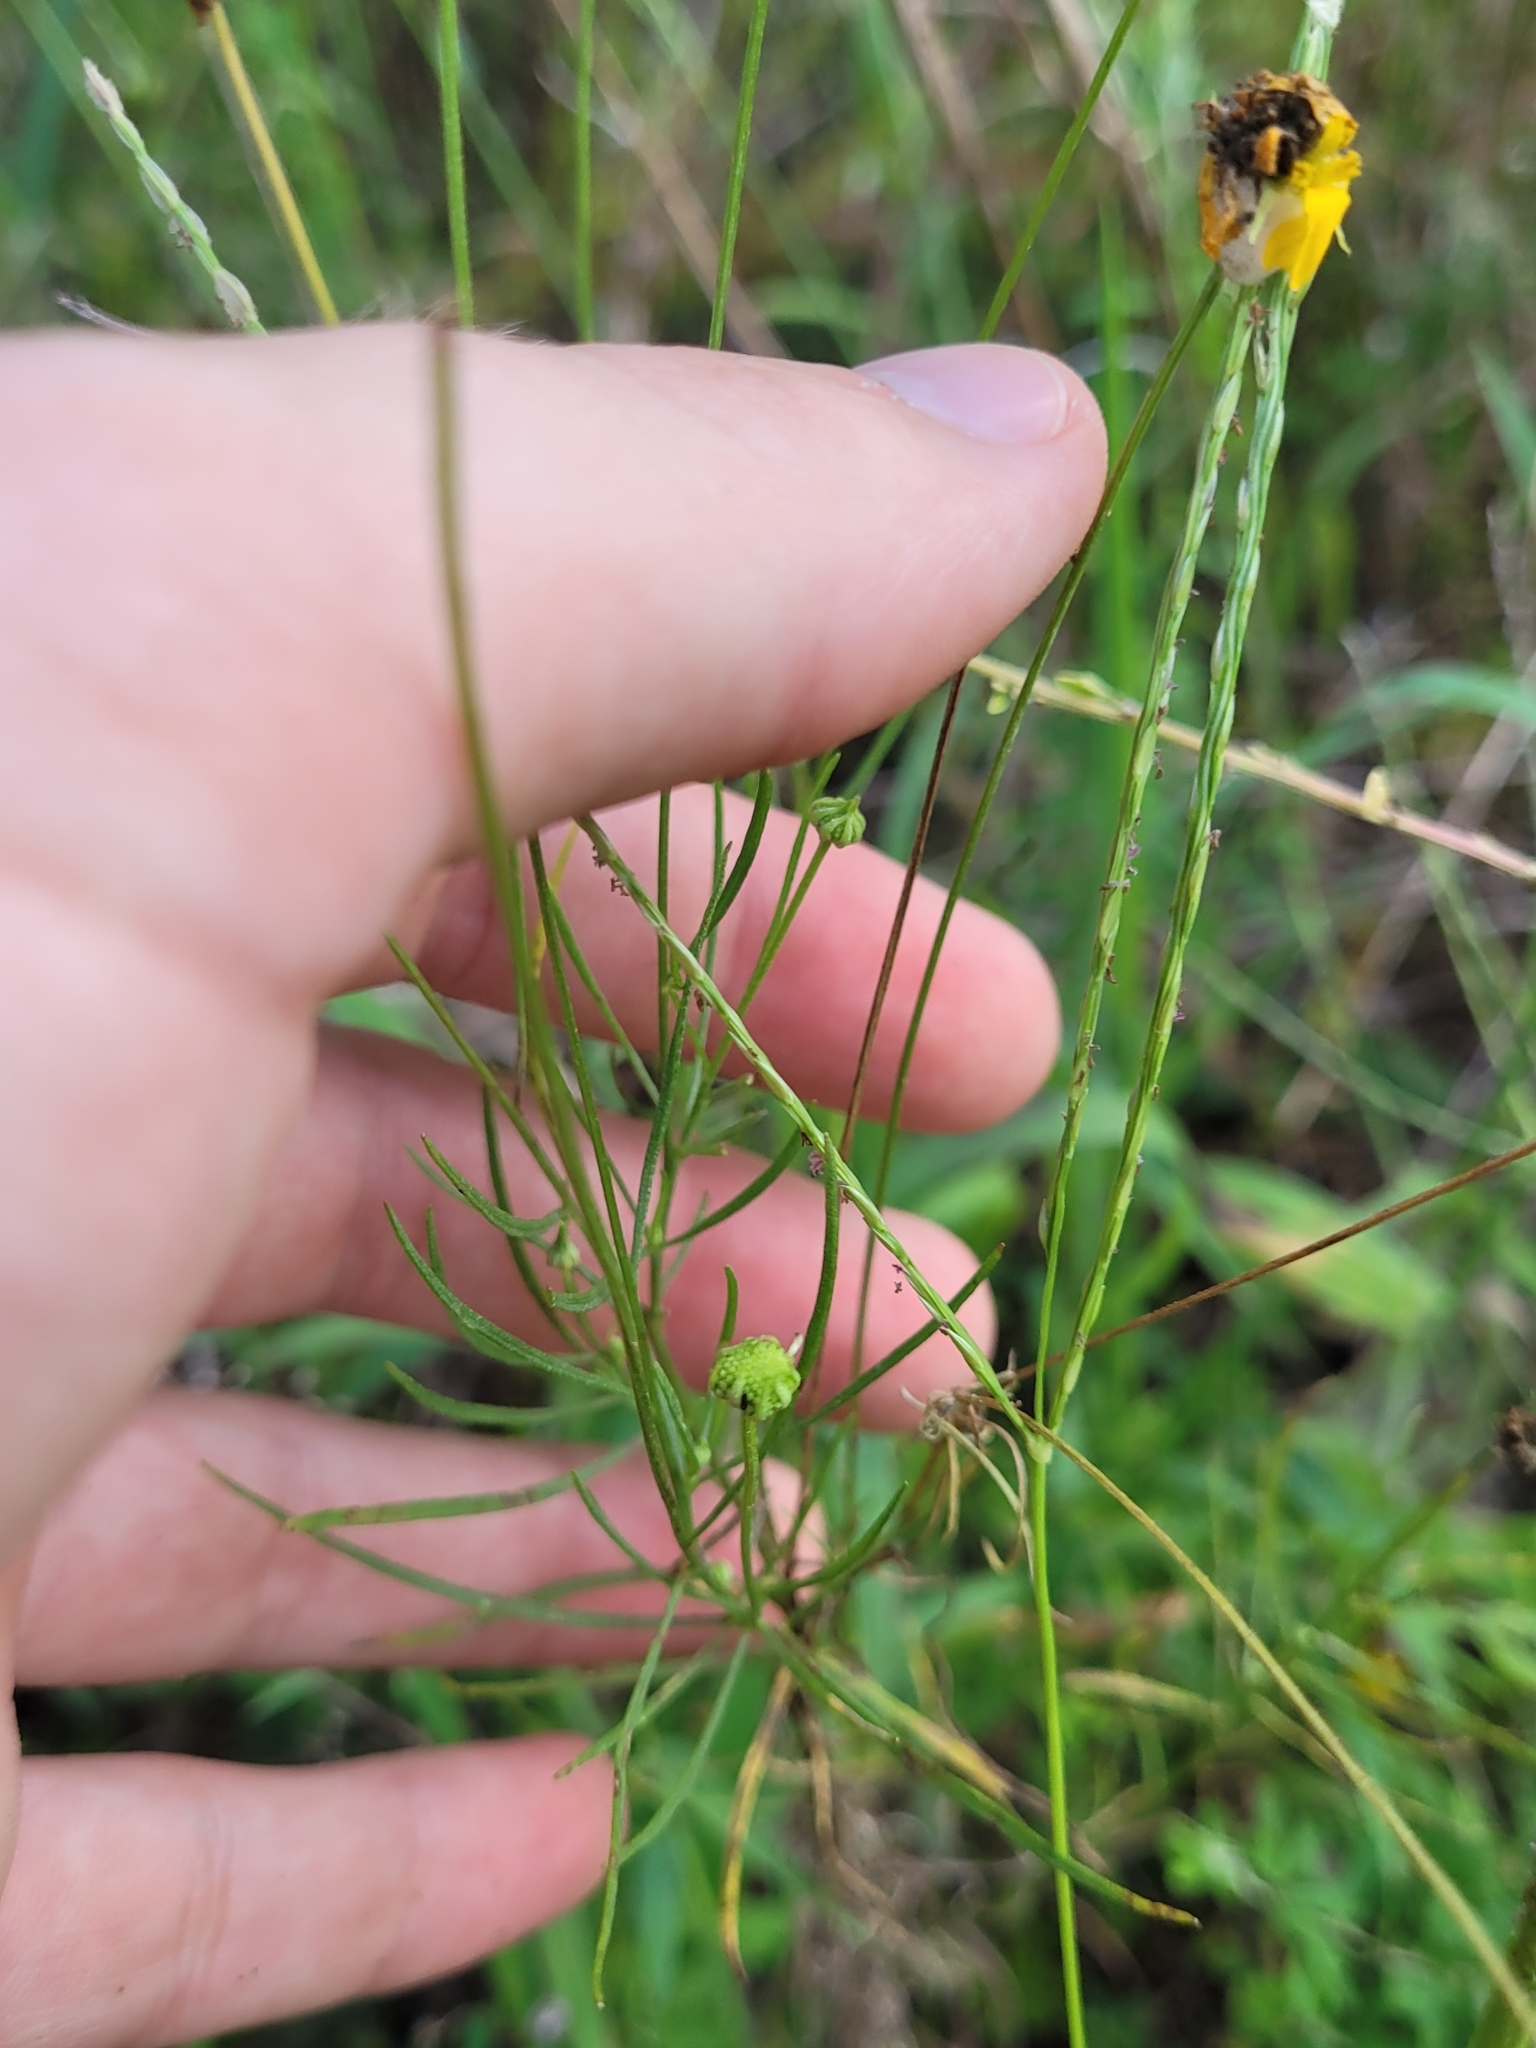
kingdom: Plantae
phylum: Tracheophyta
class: Magnoliopsida
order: Asterales
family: Asteraceae
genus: Helenium
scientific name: Helenium amarum
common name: Bitter sneezeweed
